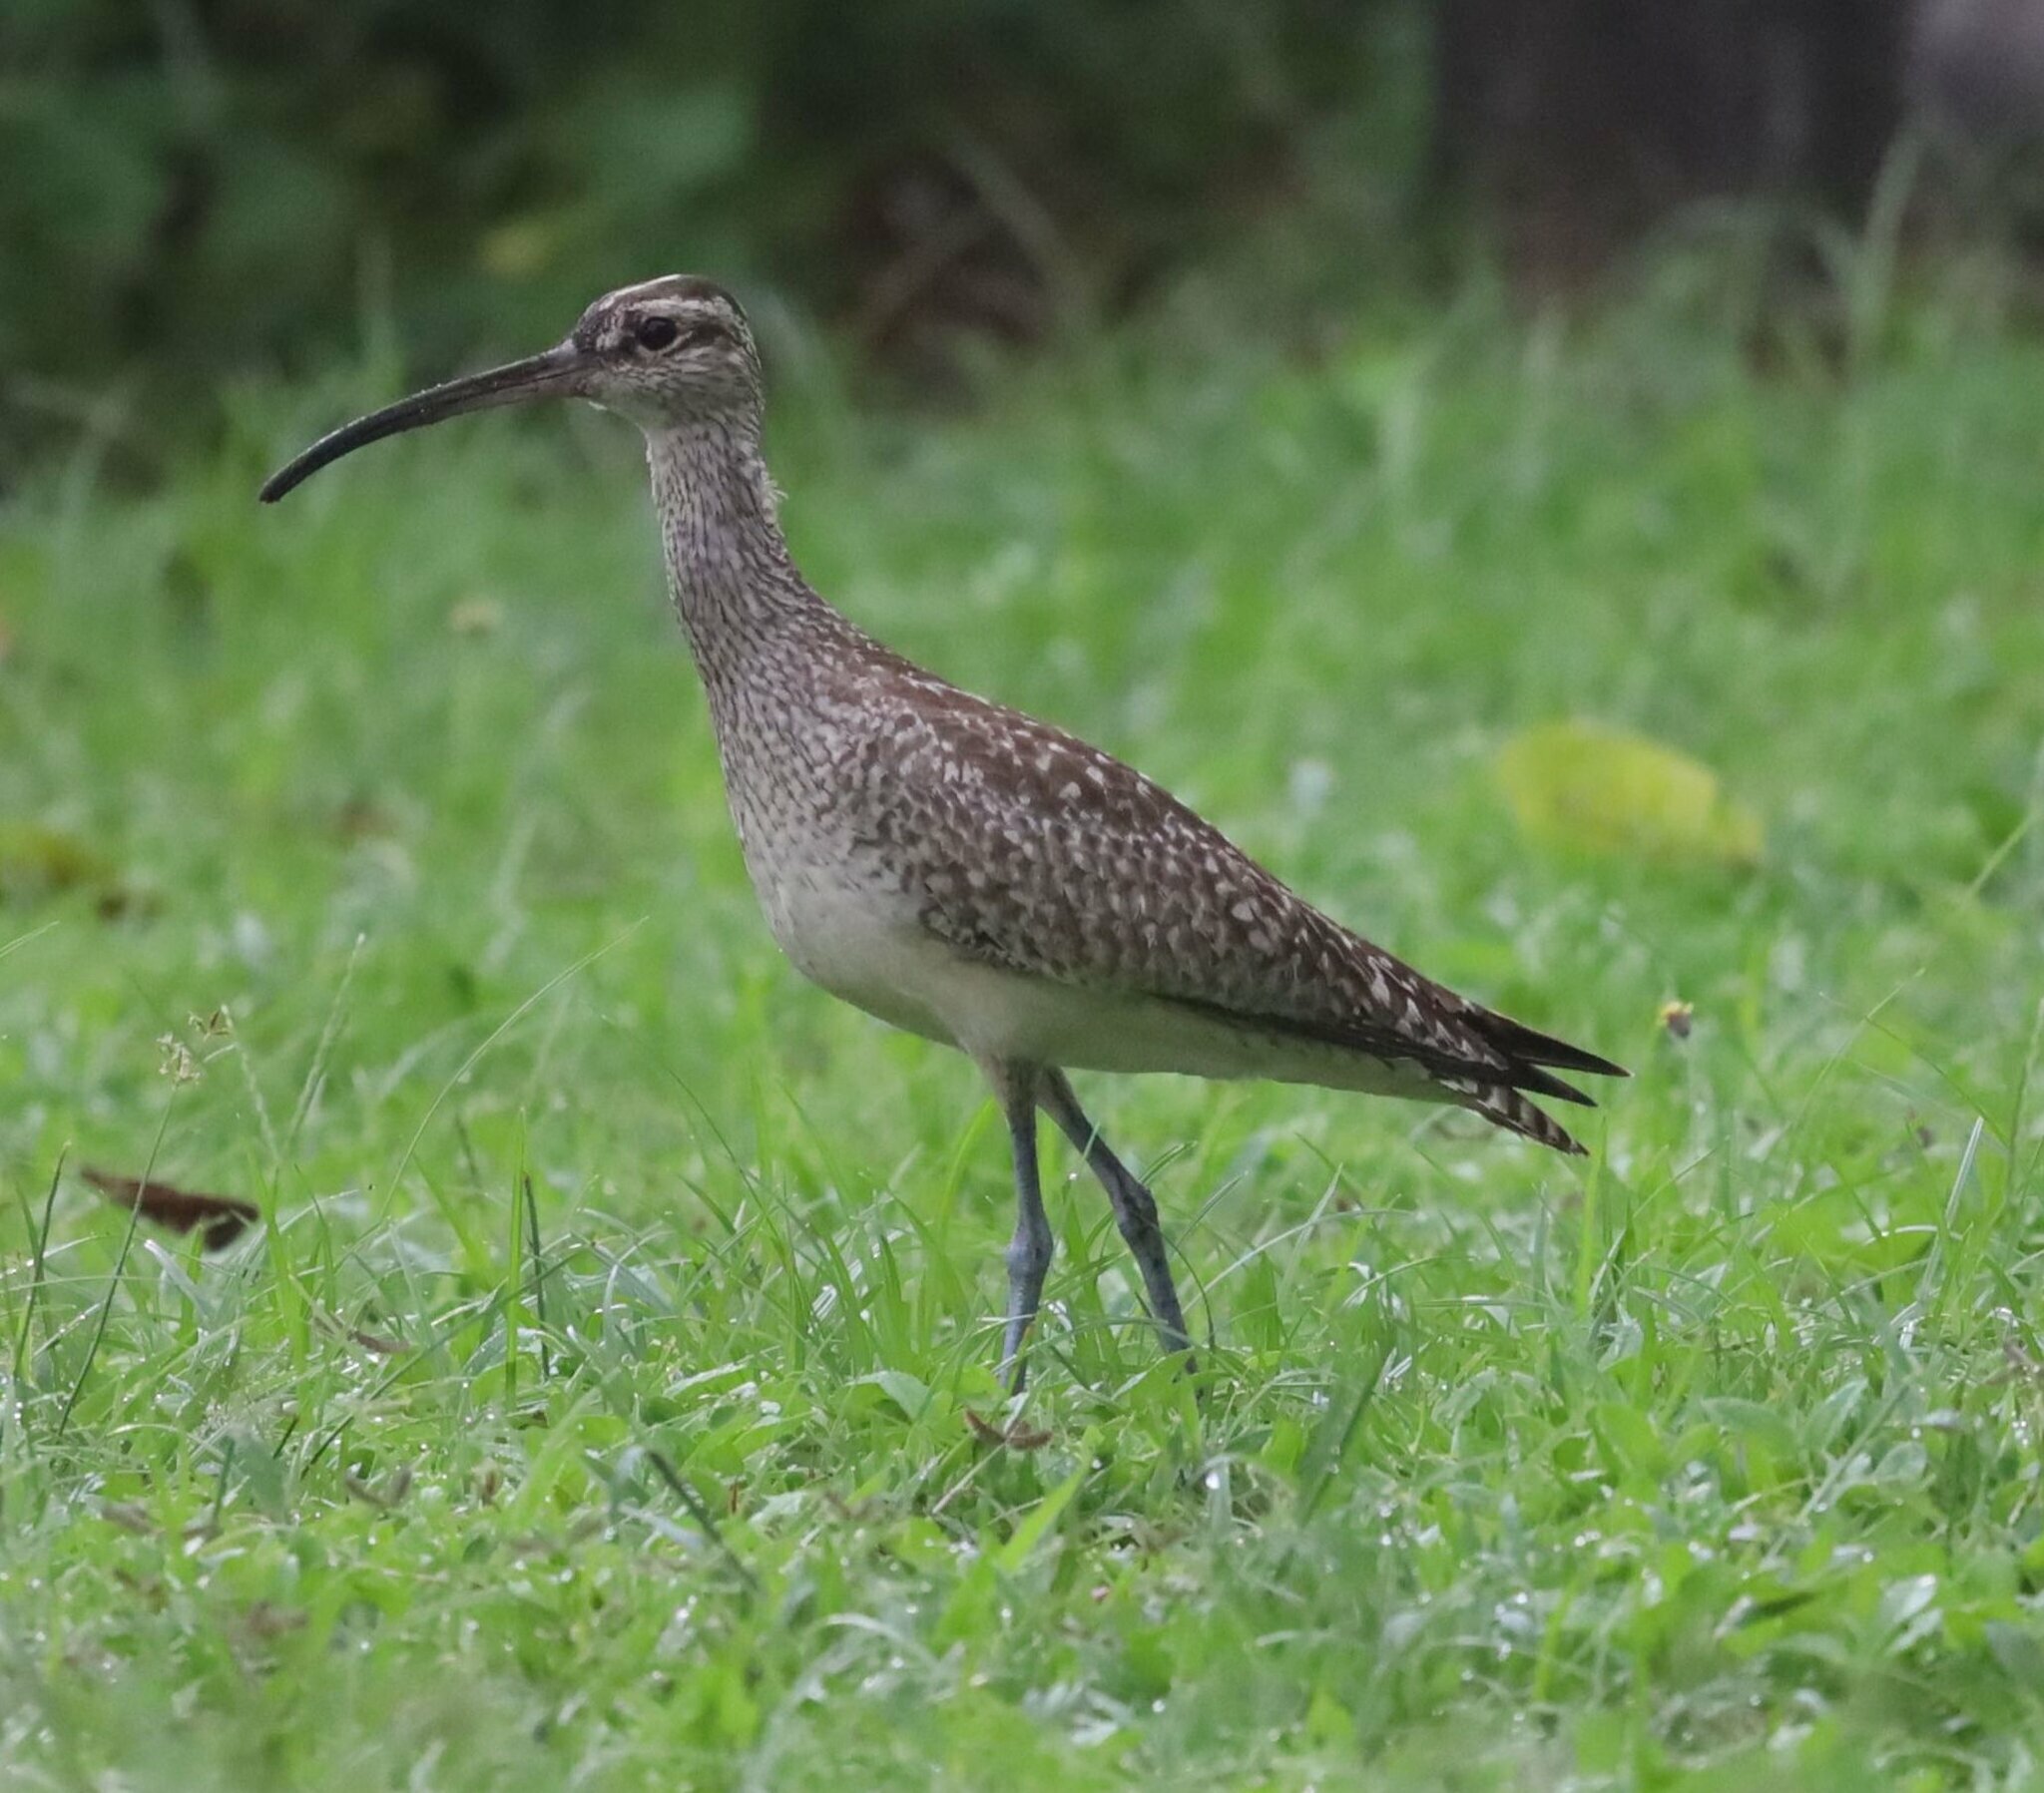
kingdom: Animalia
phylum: Chordata
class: Aves
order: Charadriiformes
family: Scolopacidae
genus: Numenius
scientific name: Numenius phaeopus
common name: Whimbrel
